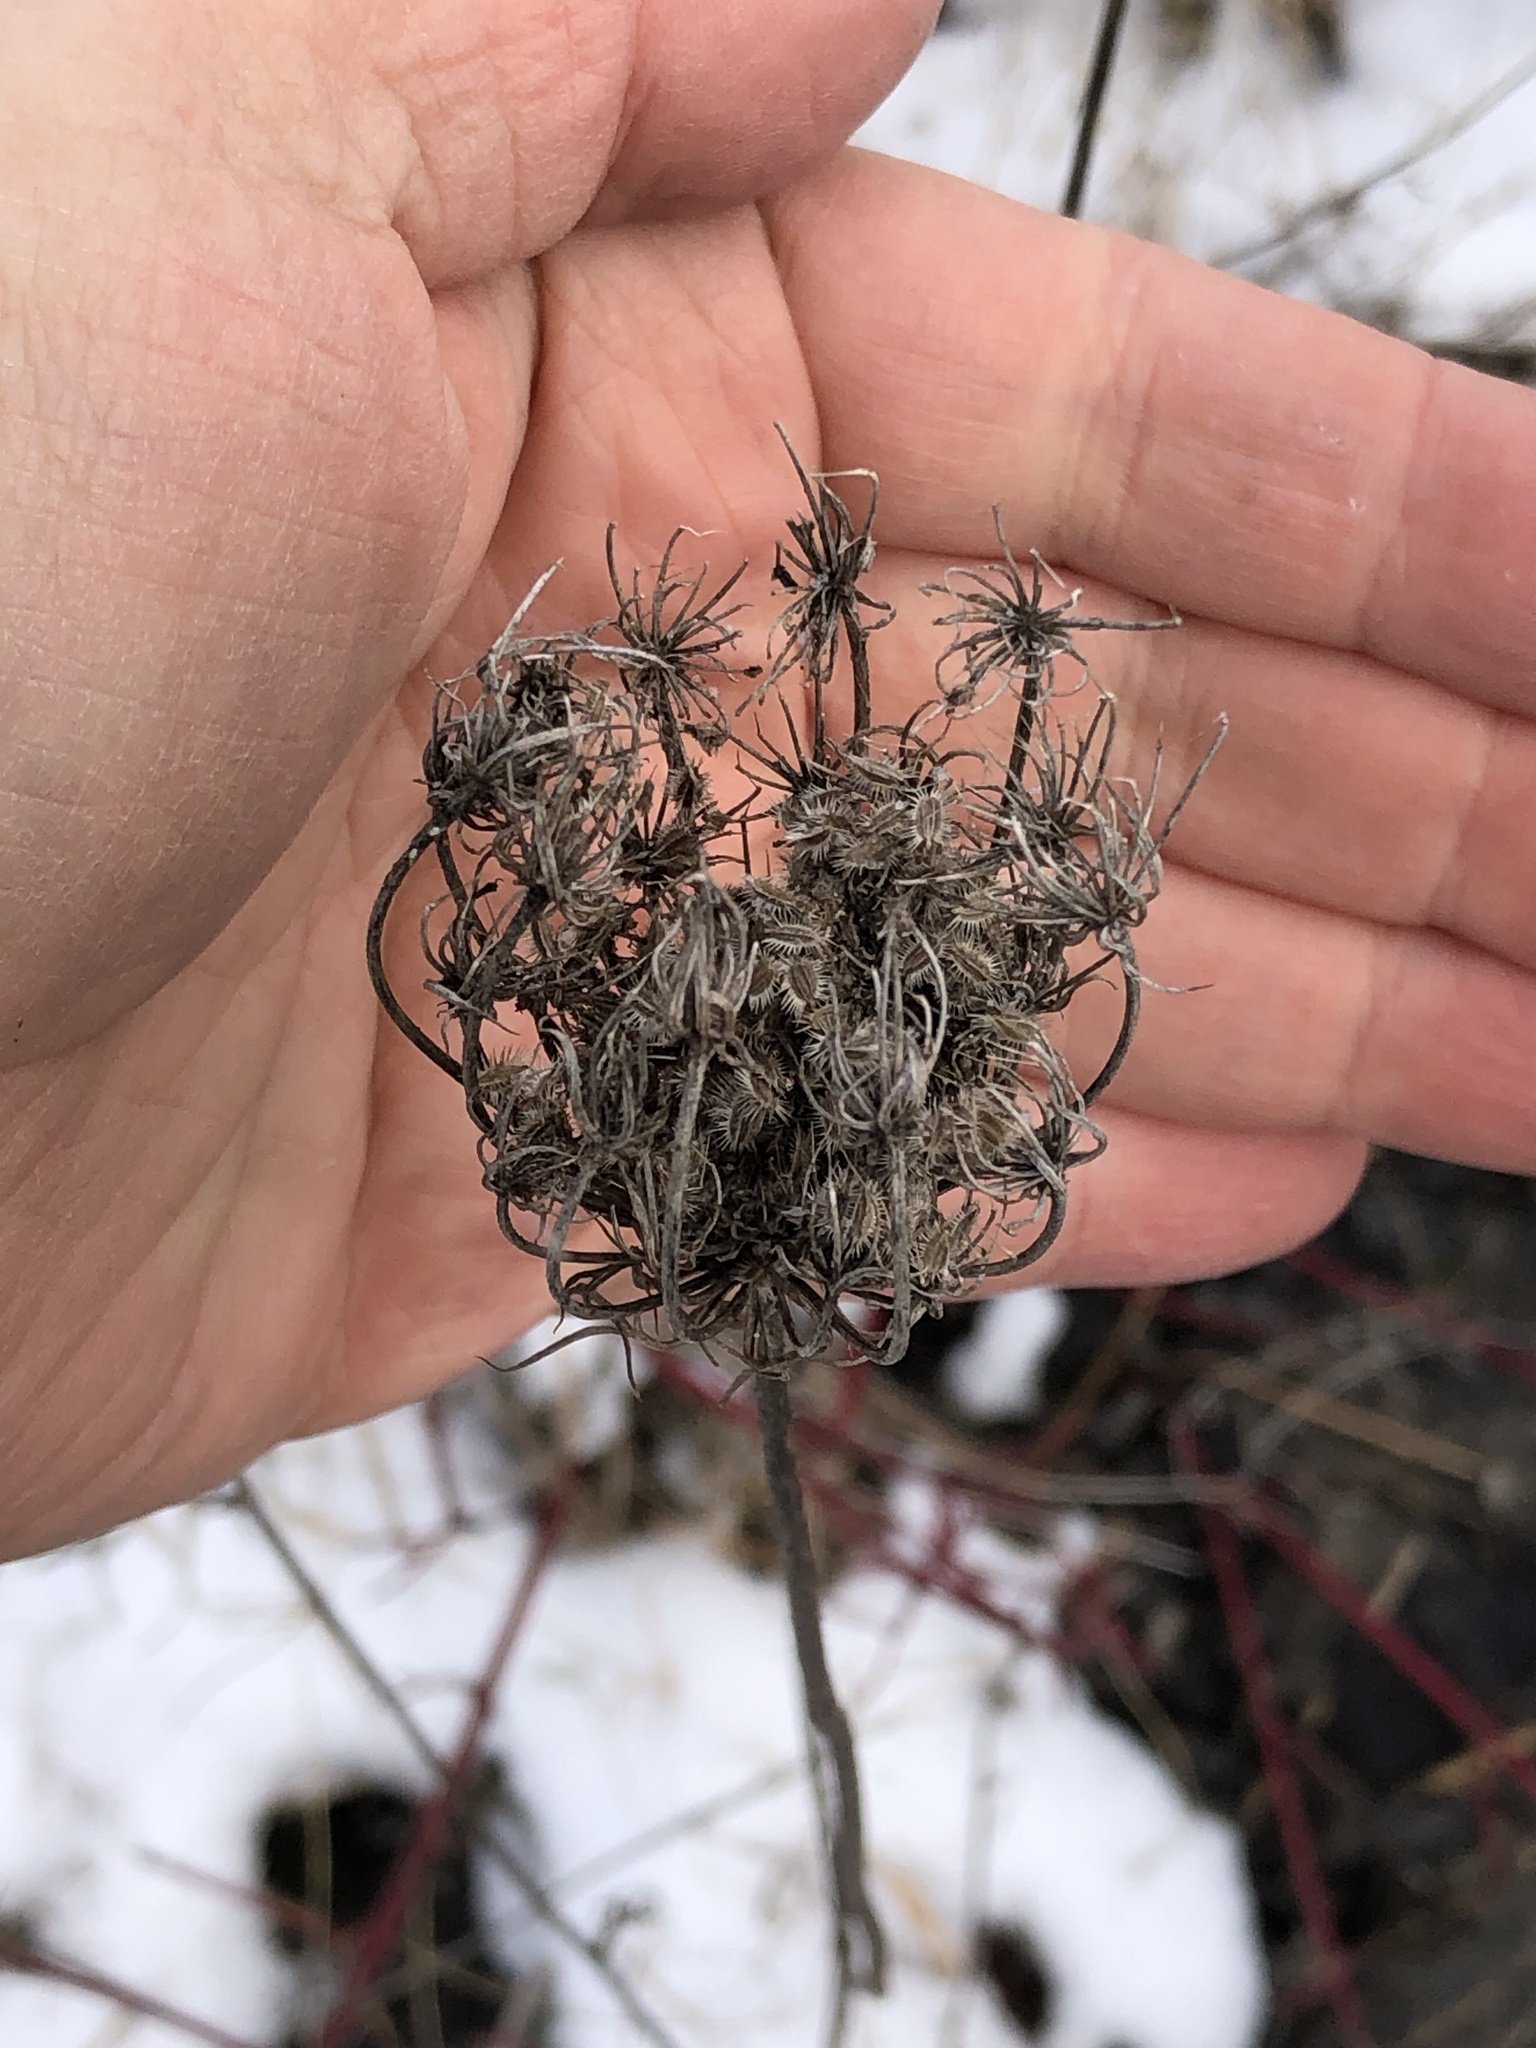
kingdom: Plantae
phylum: Tracheophyta
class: Magnoliopsida
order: Apiales
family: Apiaceae
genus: Daucus
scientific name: Daucus carota
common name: Wild carrot
